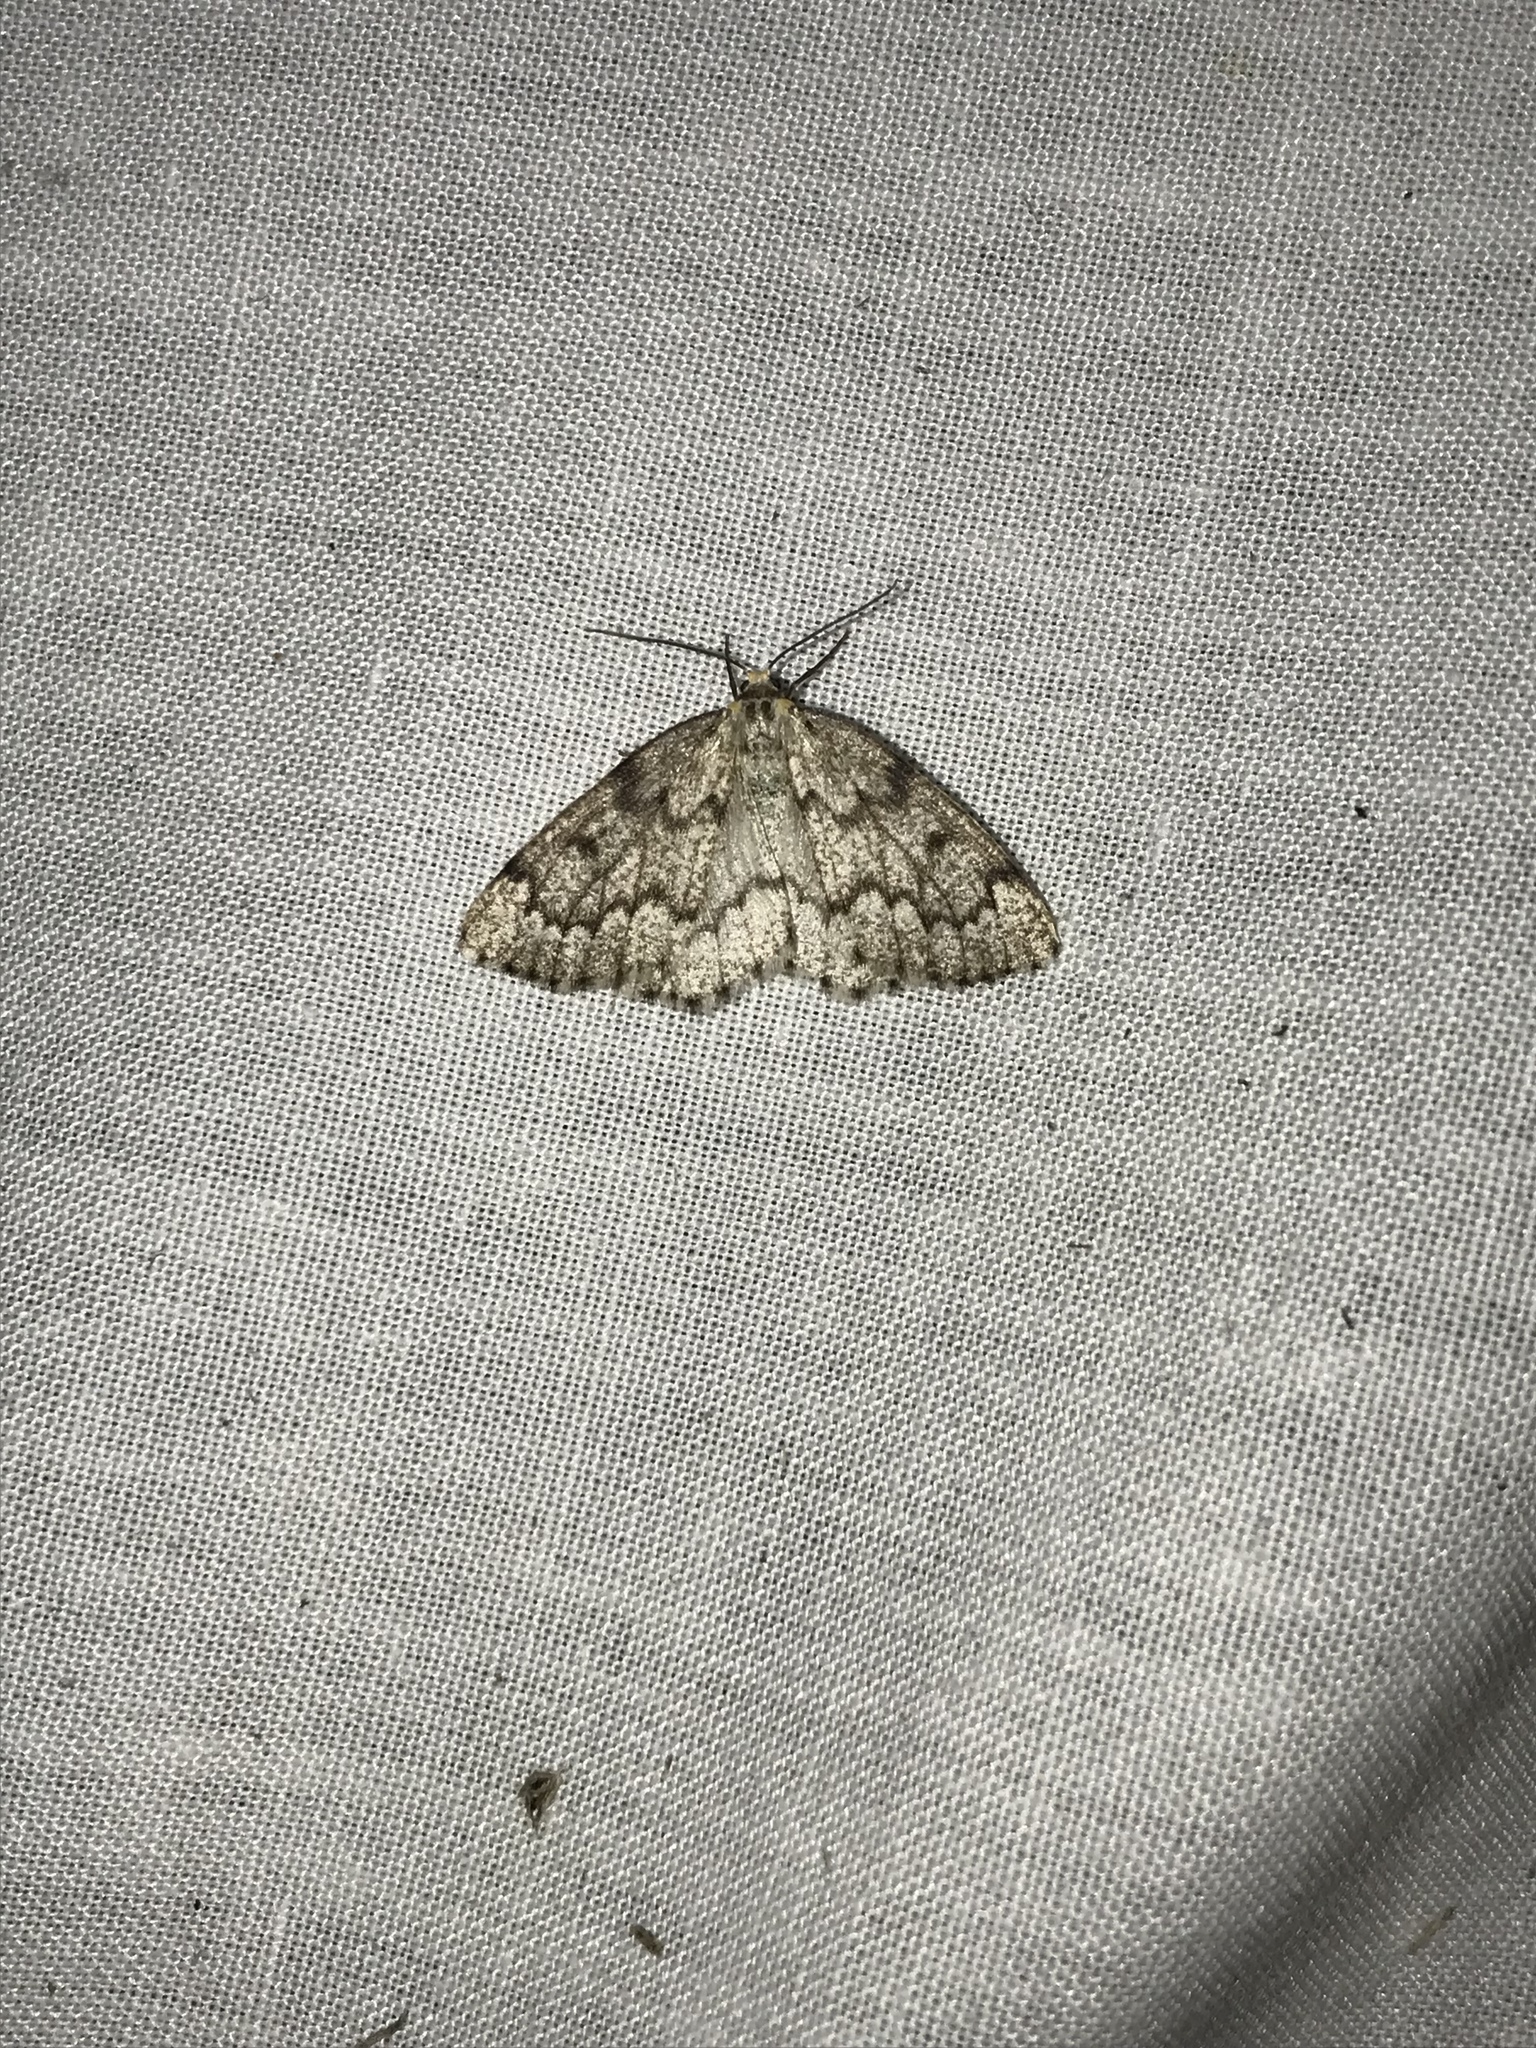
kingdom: Animalia
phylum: Arthropoda
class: Insecta
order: Lepidoptera
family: Geometridae
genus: Nepytia
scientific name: Nepytia canosaria
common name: False hemlock looper
